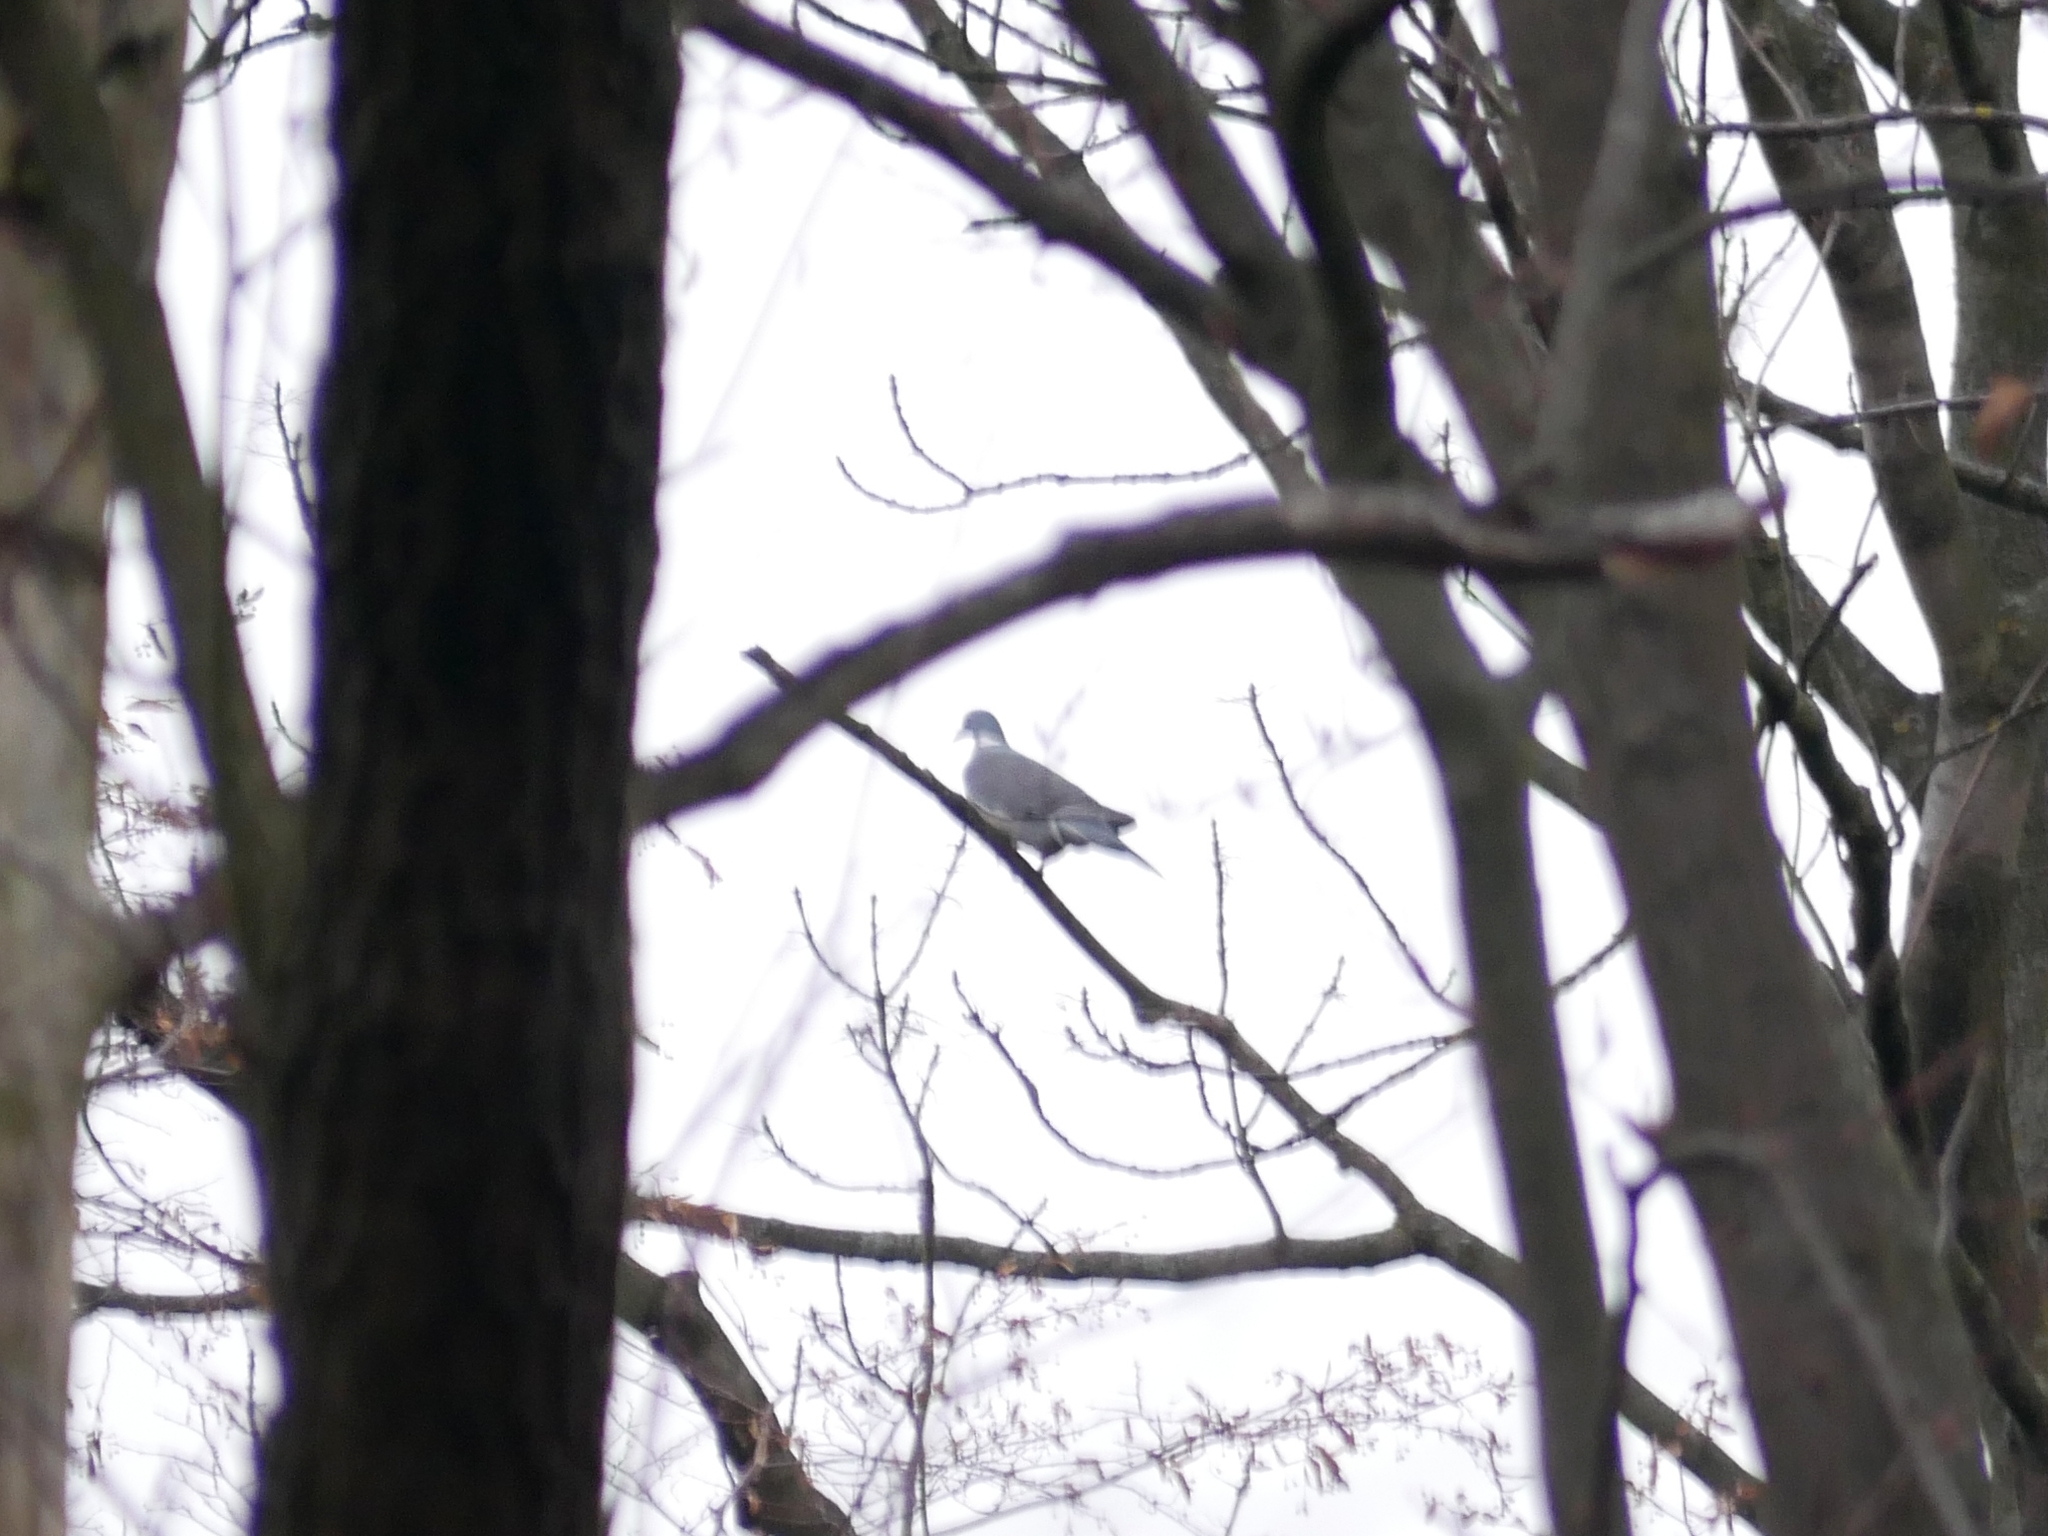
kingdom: Animalia
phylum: Chordata
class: Aves
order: Columbiformes
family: Columbidae
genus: Columba
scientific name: Columba palumbus
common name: Common wood pigeon
